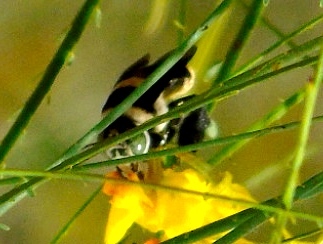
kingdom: Animalia
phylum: Arthropoda
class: Insecta
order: Hymenoptera
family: Apidae
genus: Centris
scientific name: Centris flavofasciata
